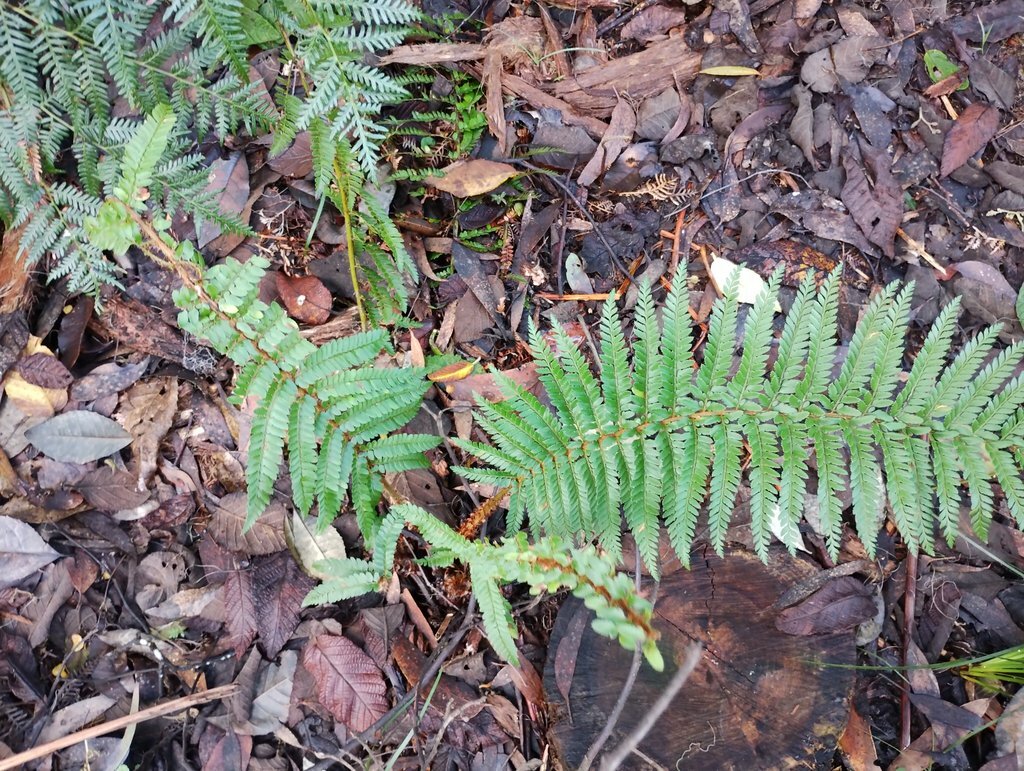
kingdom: Plantae
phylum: Tracheophyta
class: Polypodiopsida
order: Polypodiales
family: Dryopteridaceae
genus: Polystichum
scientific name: Polystichum proliferum
